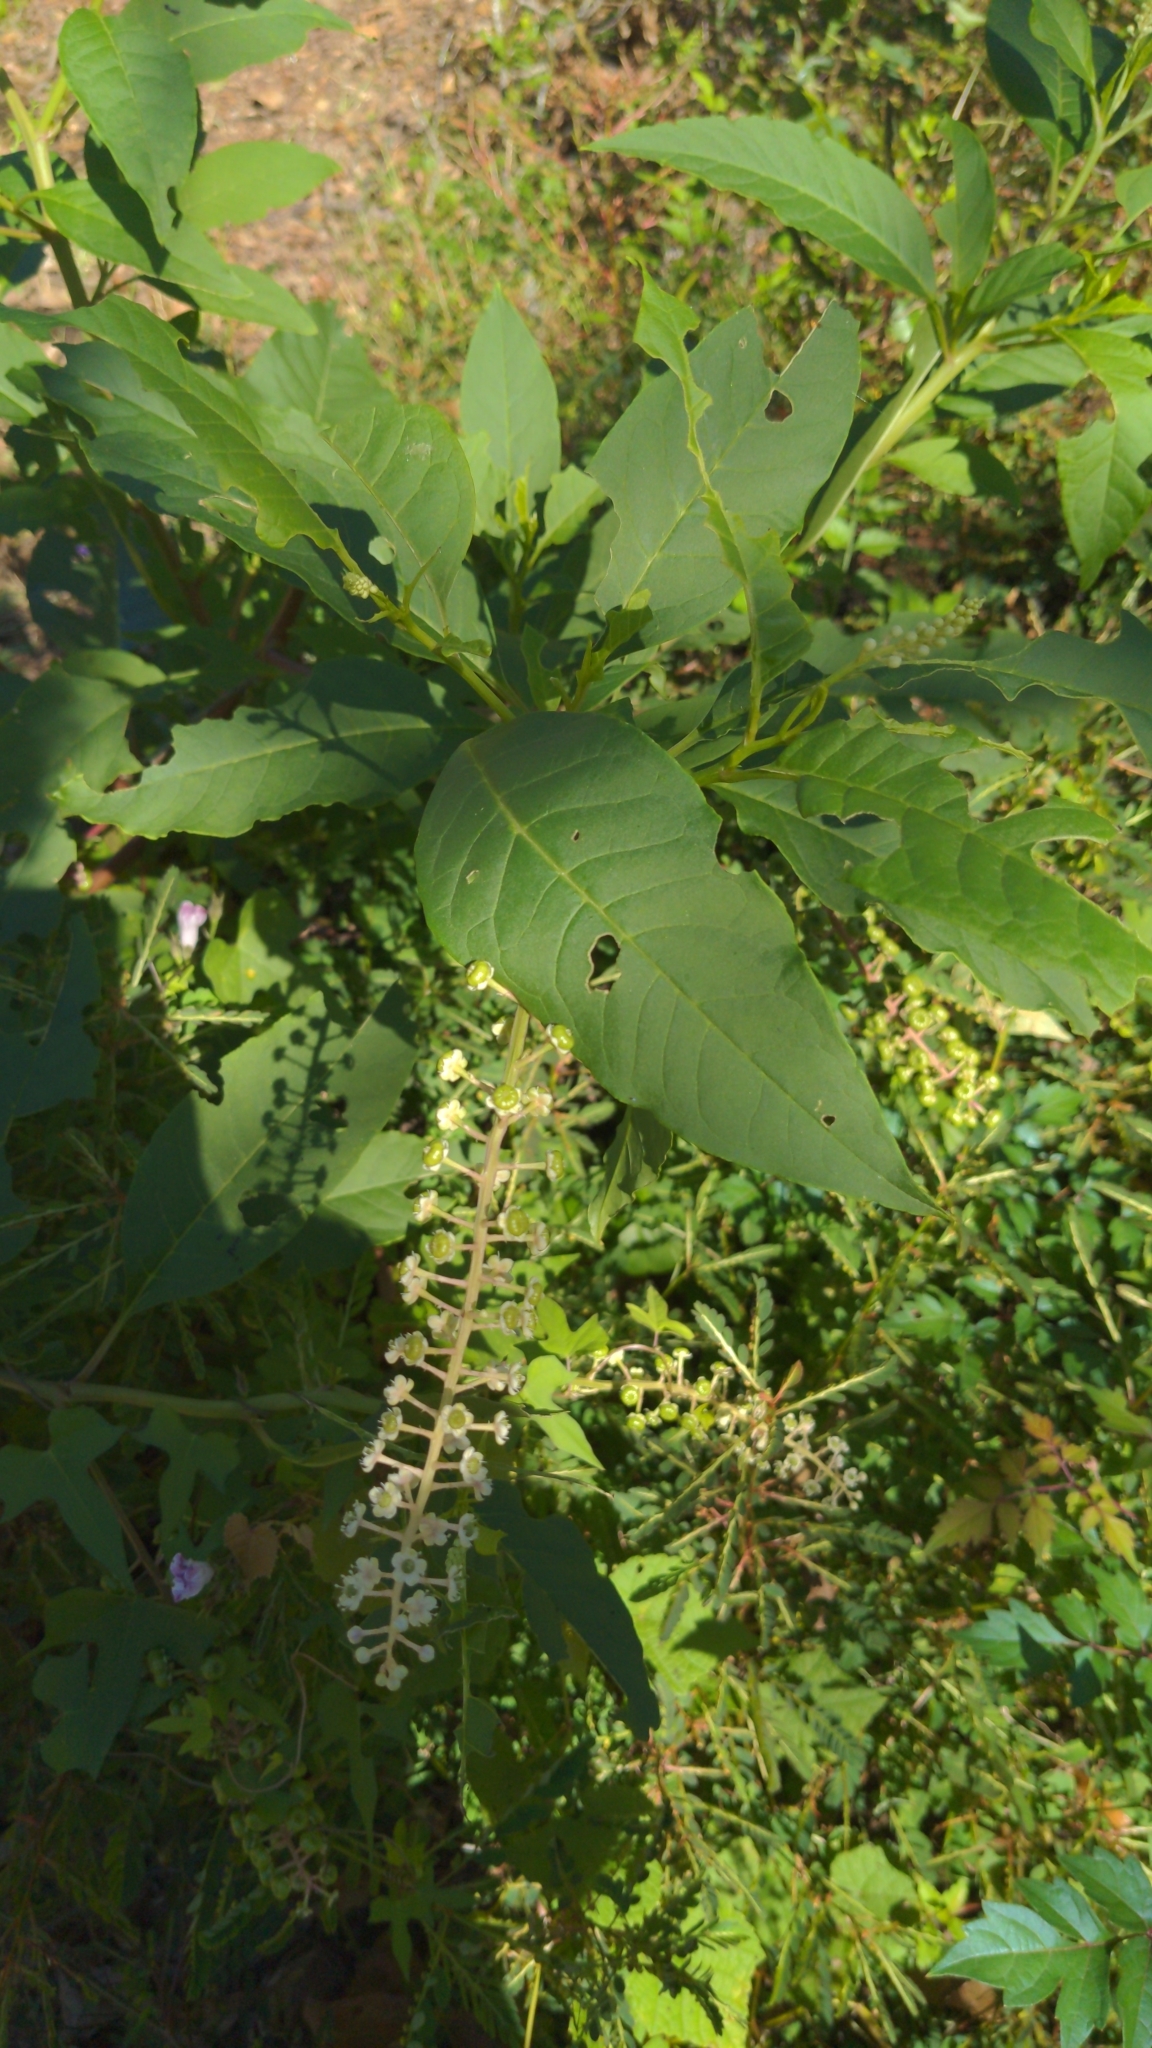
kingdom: Plantae
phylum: Tracheophyta
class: Magnoliopsida
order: Caryophyllales
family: Phytolaccaceae
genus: Phytolacca
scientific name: Phytolacca americana
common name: American pokeweed
